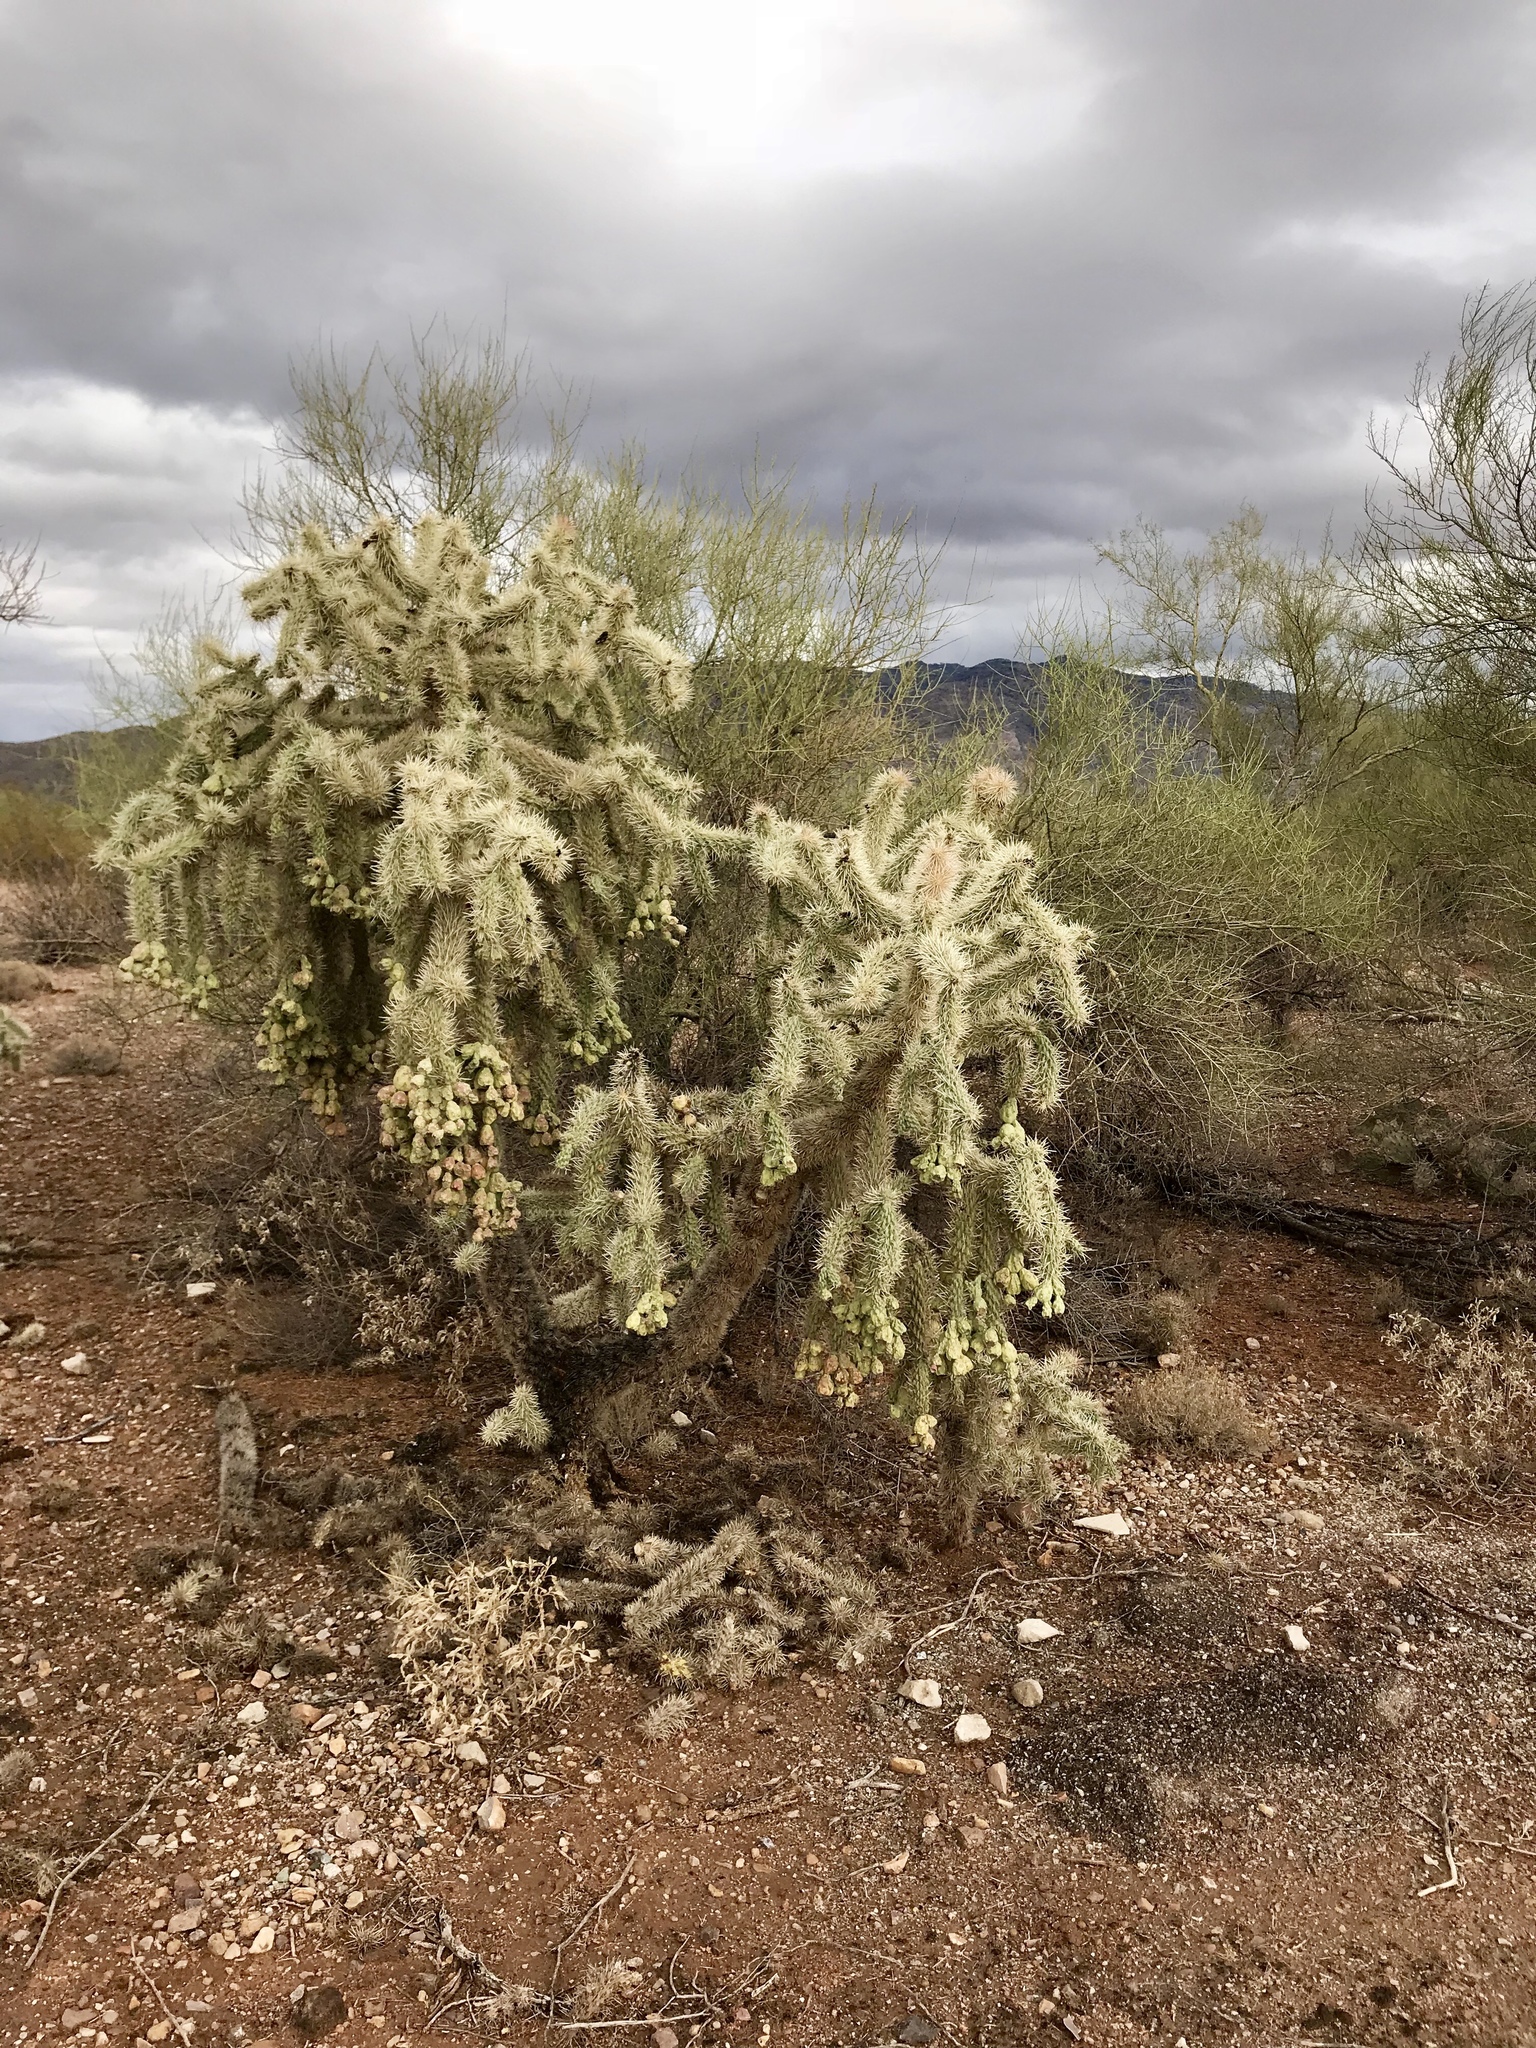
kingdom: Plantae
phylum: Tracheophyta
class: Magnoliopsida
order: Caryophyllales
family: Cactaceae
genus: Cylindropuntia
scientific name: Cylindropuntia fulgida
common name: Jumping cholla
